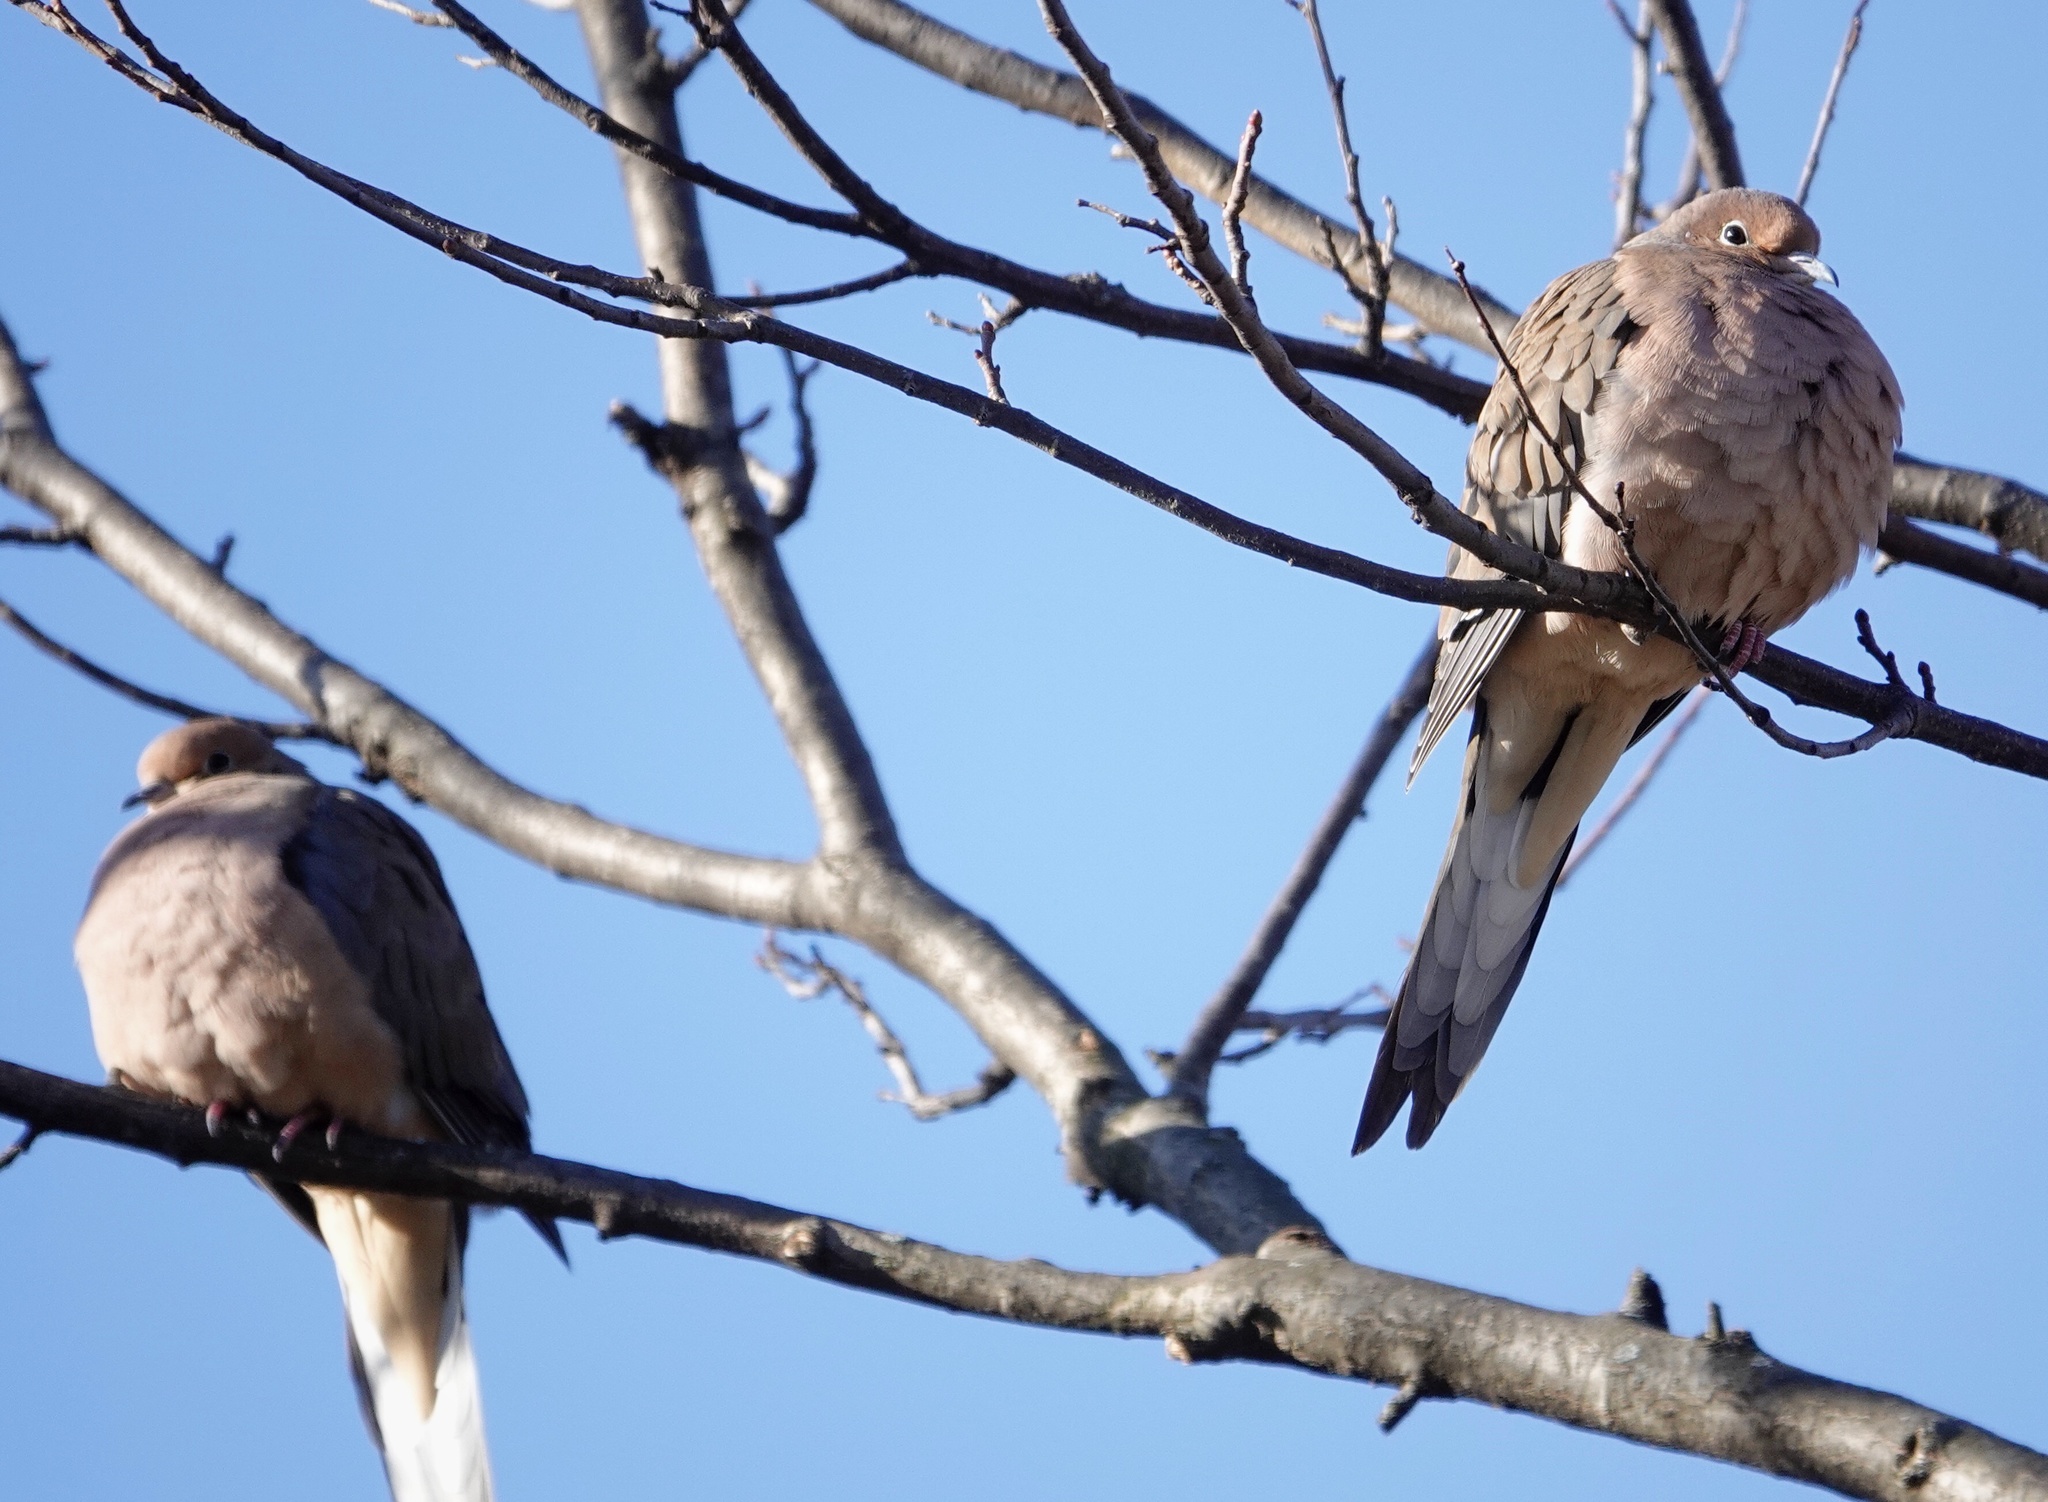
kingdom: Animalia
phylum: Chordata
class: Aves
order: Columbiformes
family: Columbidae
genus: Zenaida
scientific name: Zenaida macroura
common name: Mourning dove
